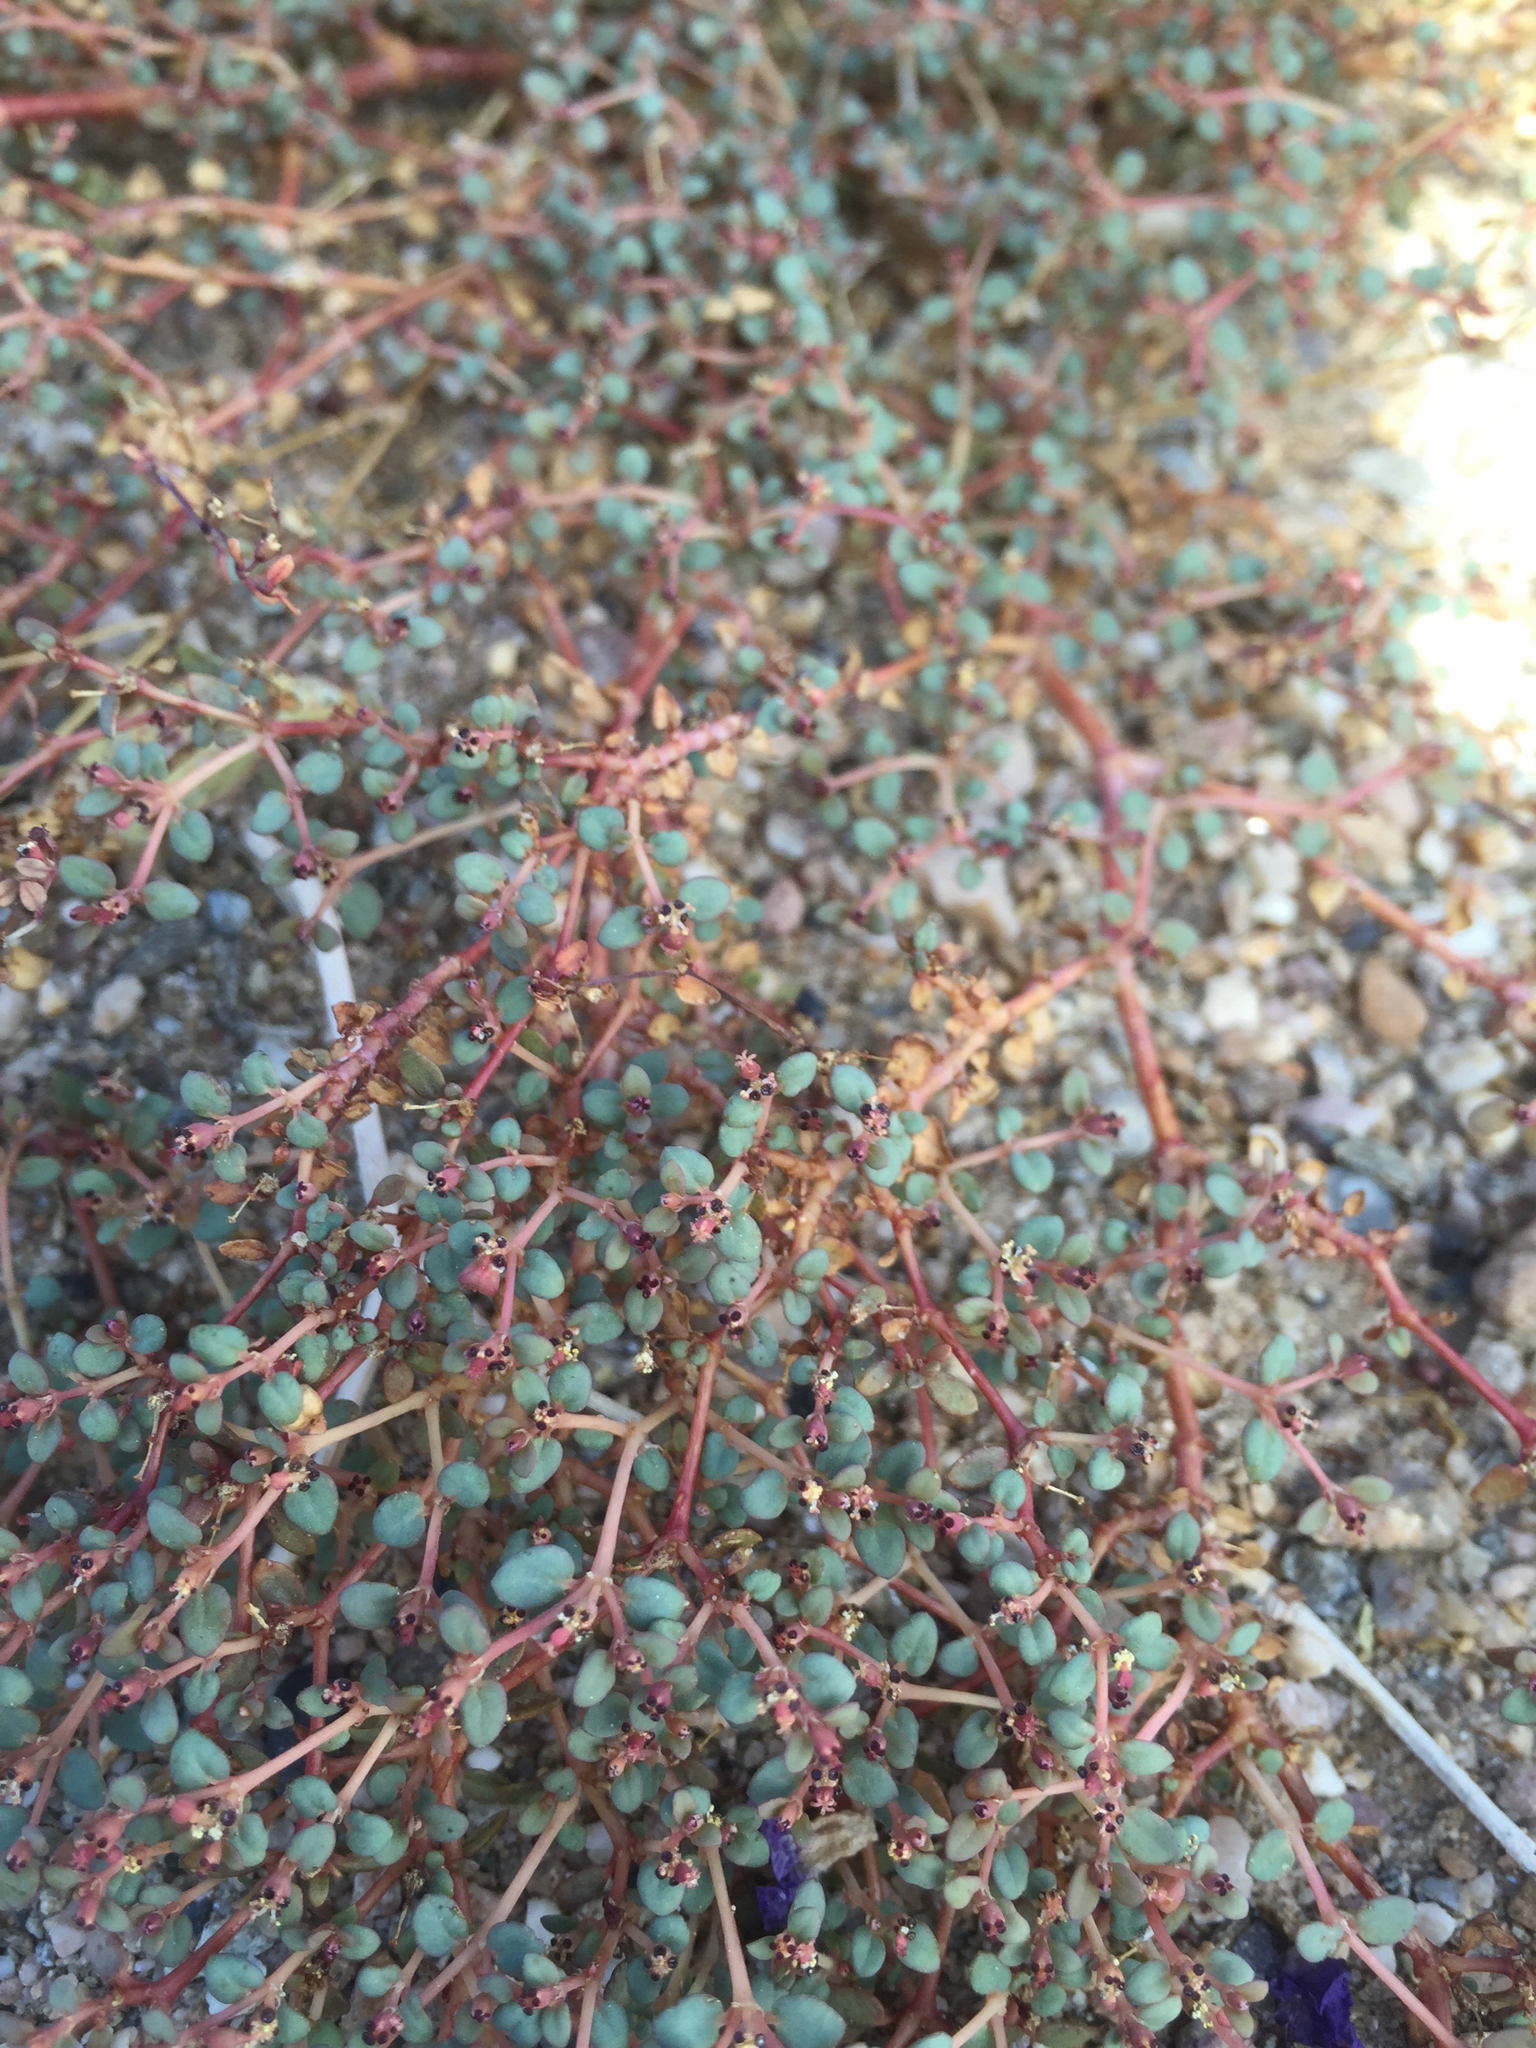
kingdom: Plantae
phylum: Tracheophyta
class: Magnoliopsida
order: Malpighiales
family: Euphorbiaceae
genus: Euphorbia
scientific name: Euphorbia parishii
